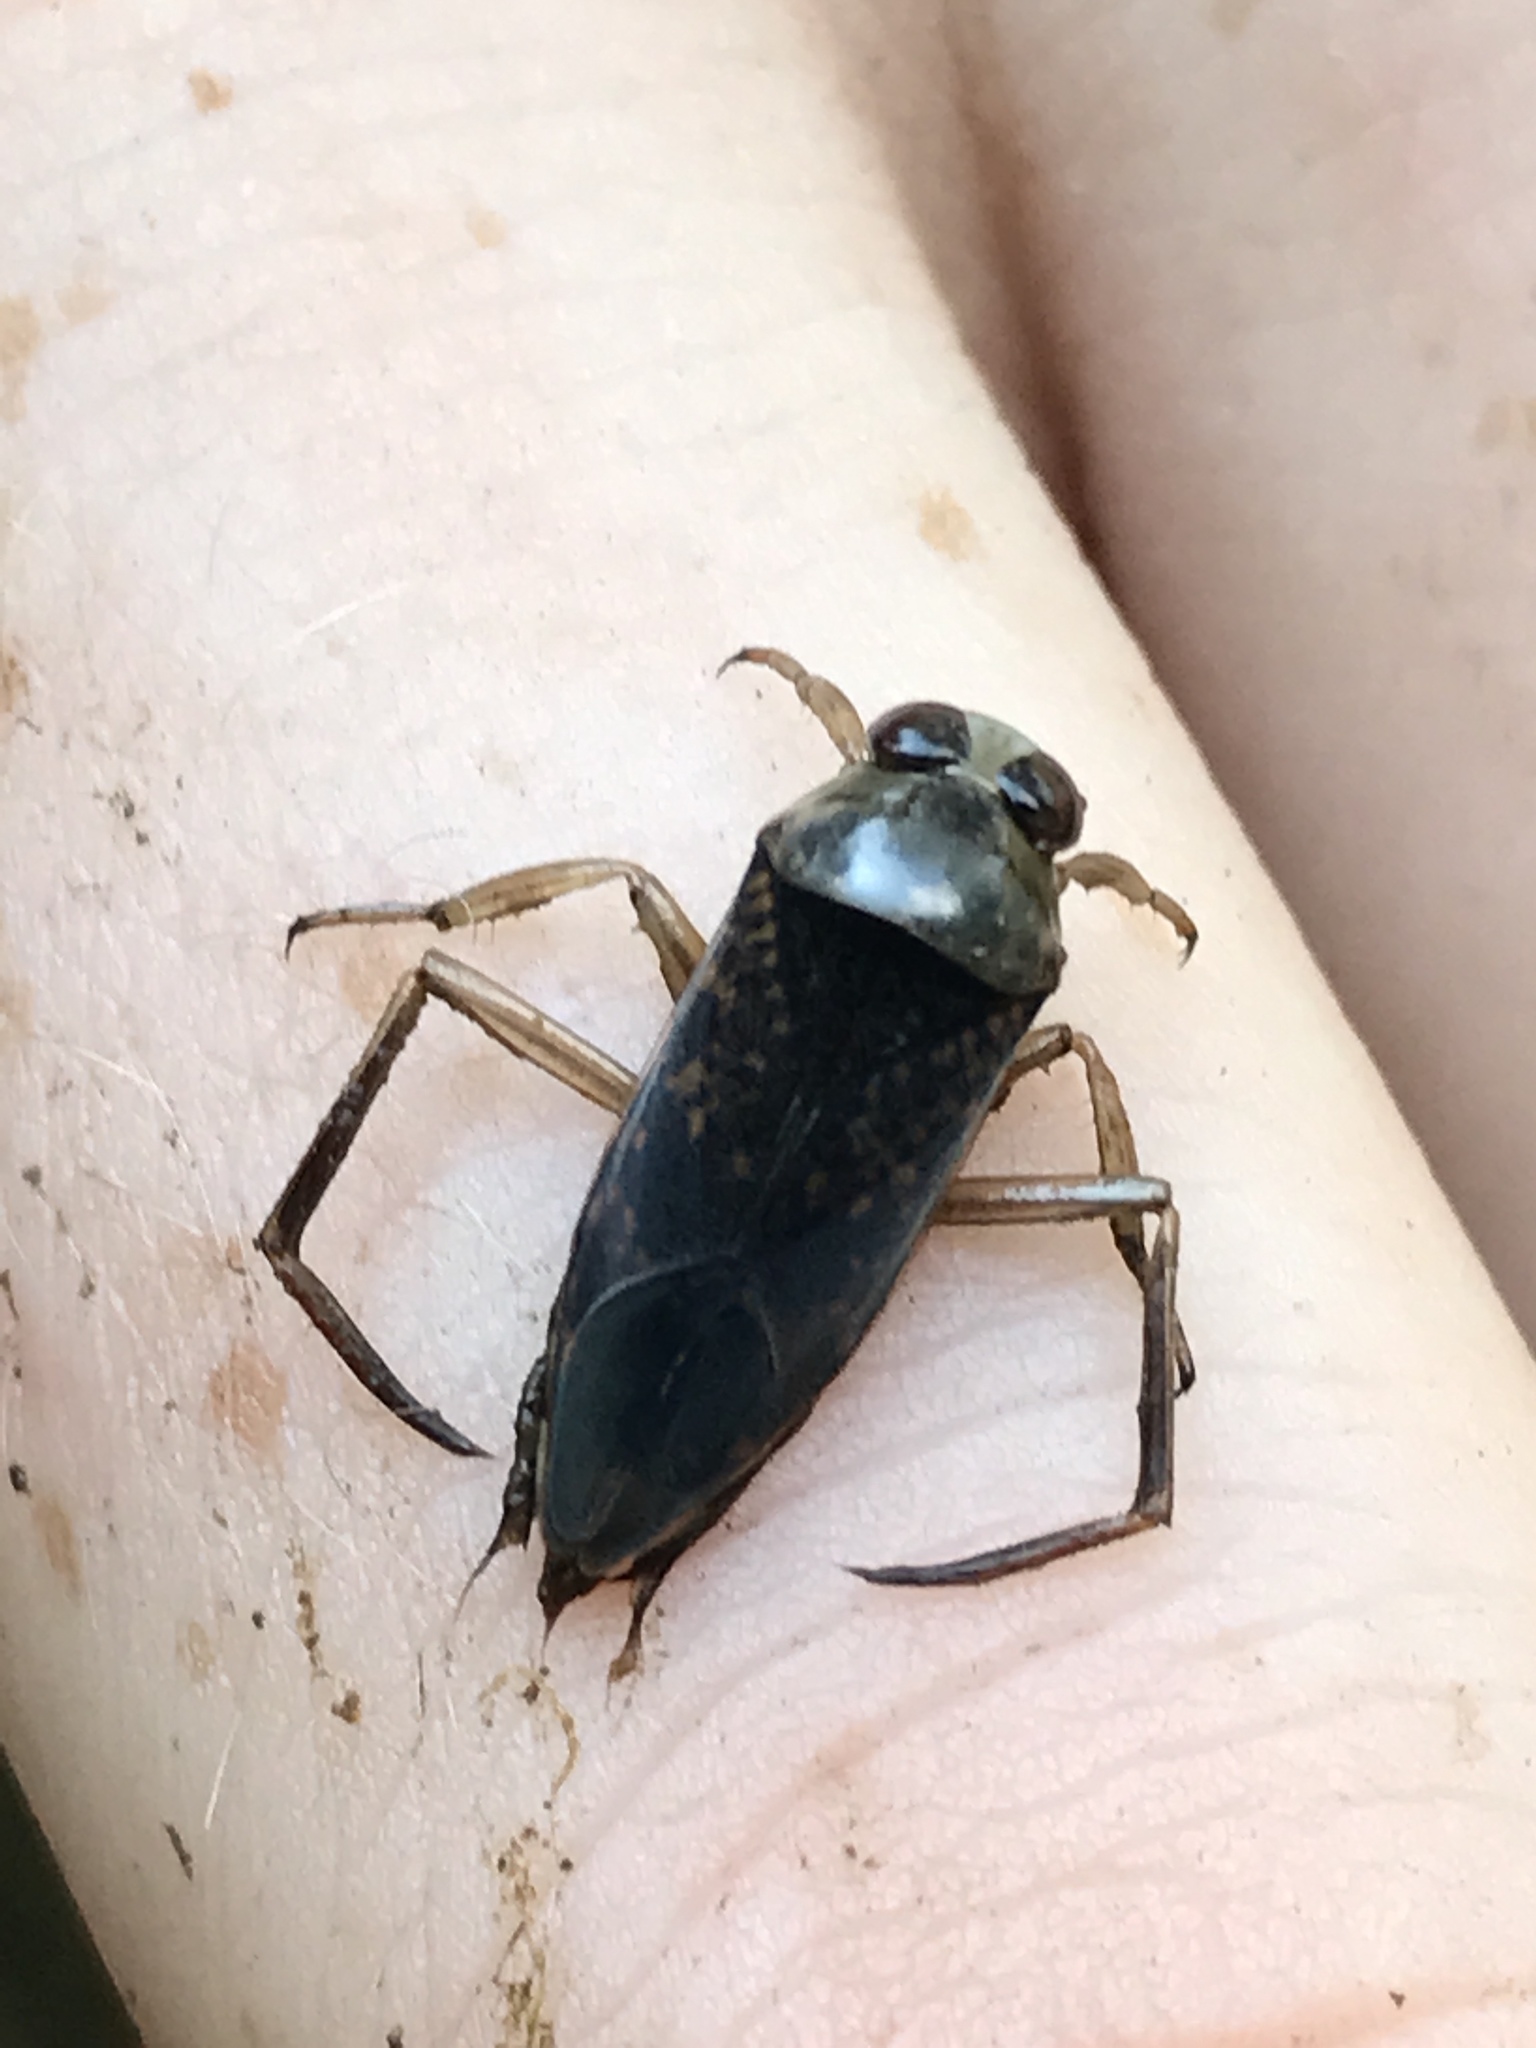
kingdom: Animalia
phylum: Arthropoda
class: Insecta
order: Hemiptera
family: Notonectidae
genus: Notonecta
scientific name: Notonecta irrorata
